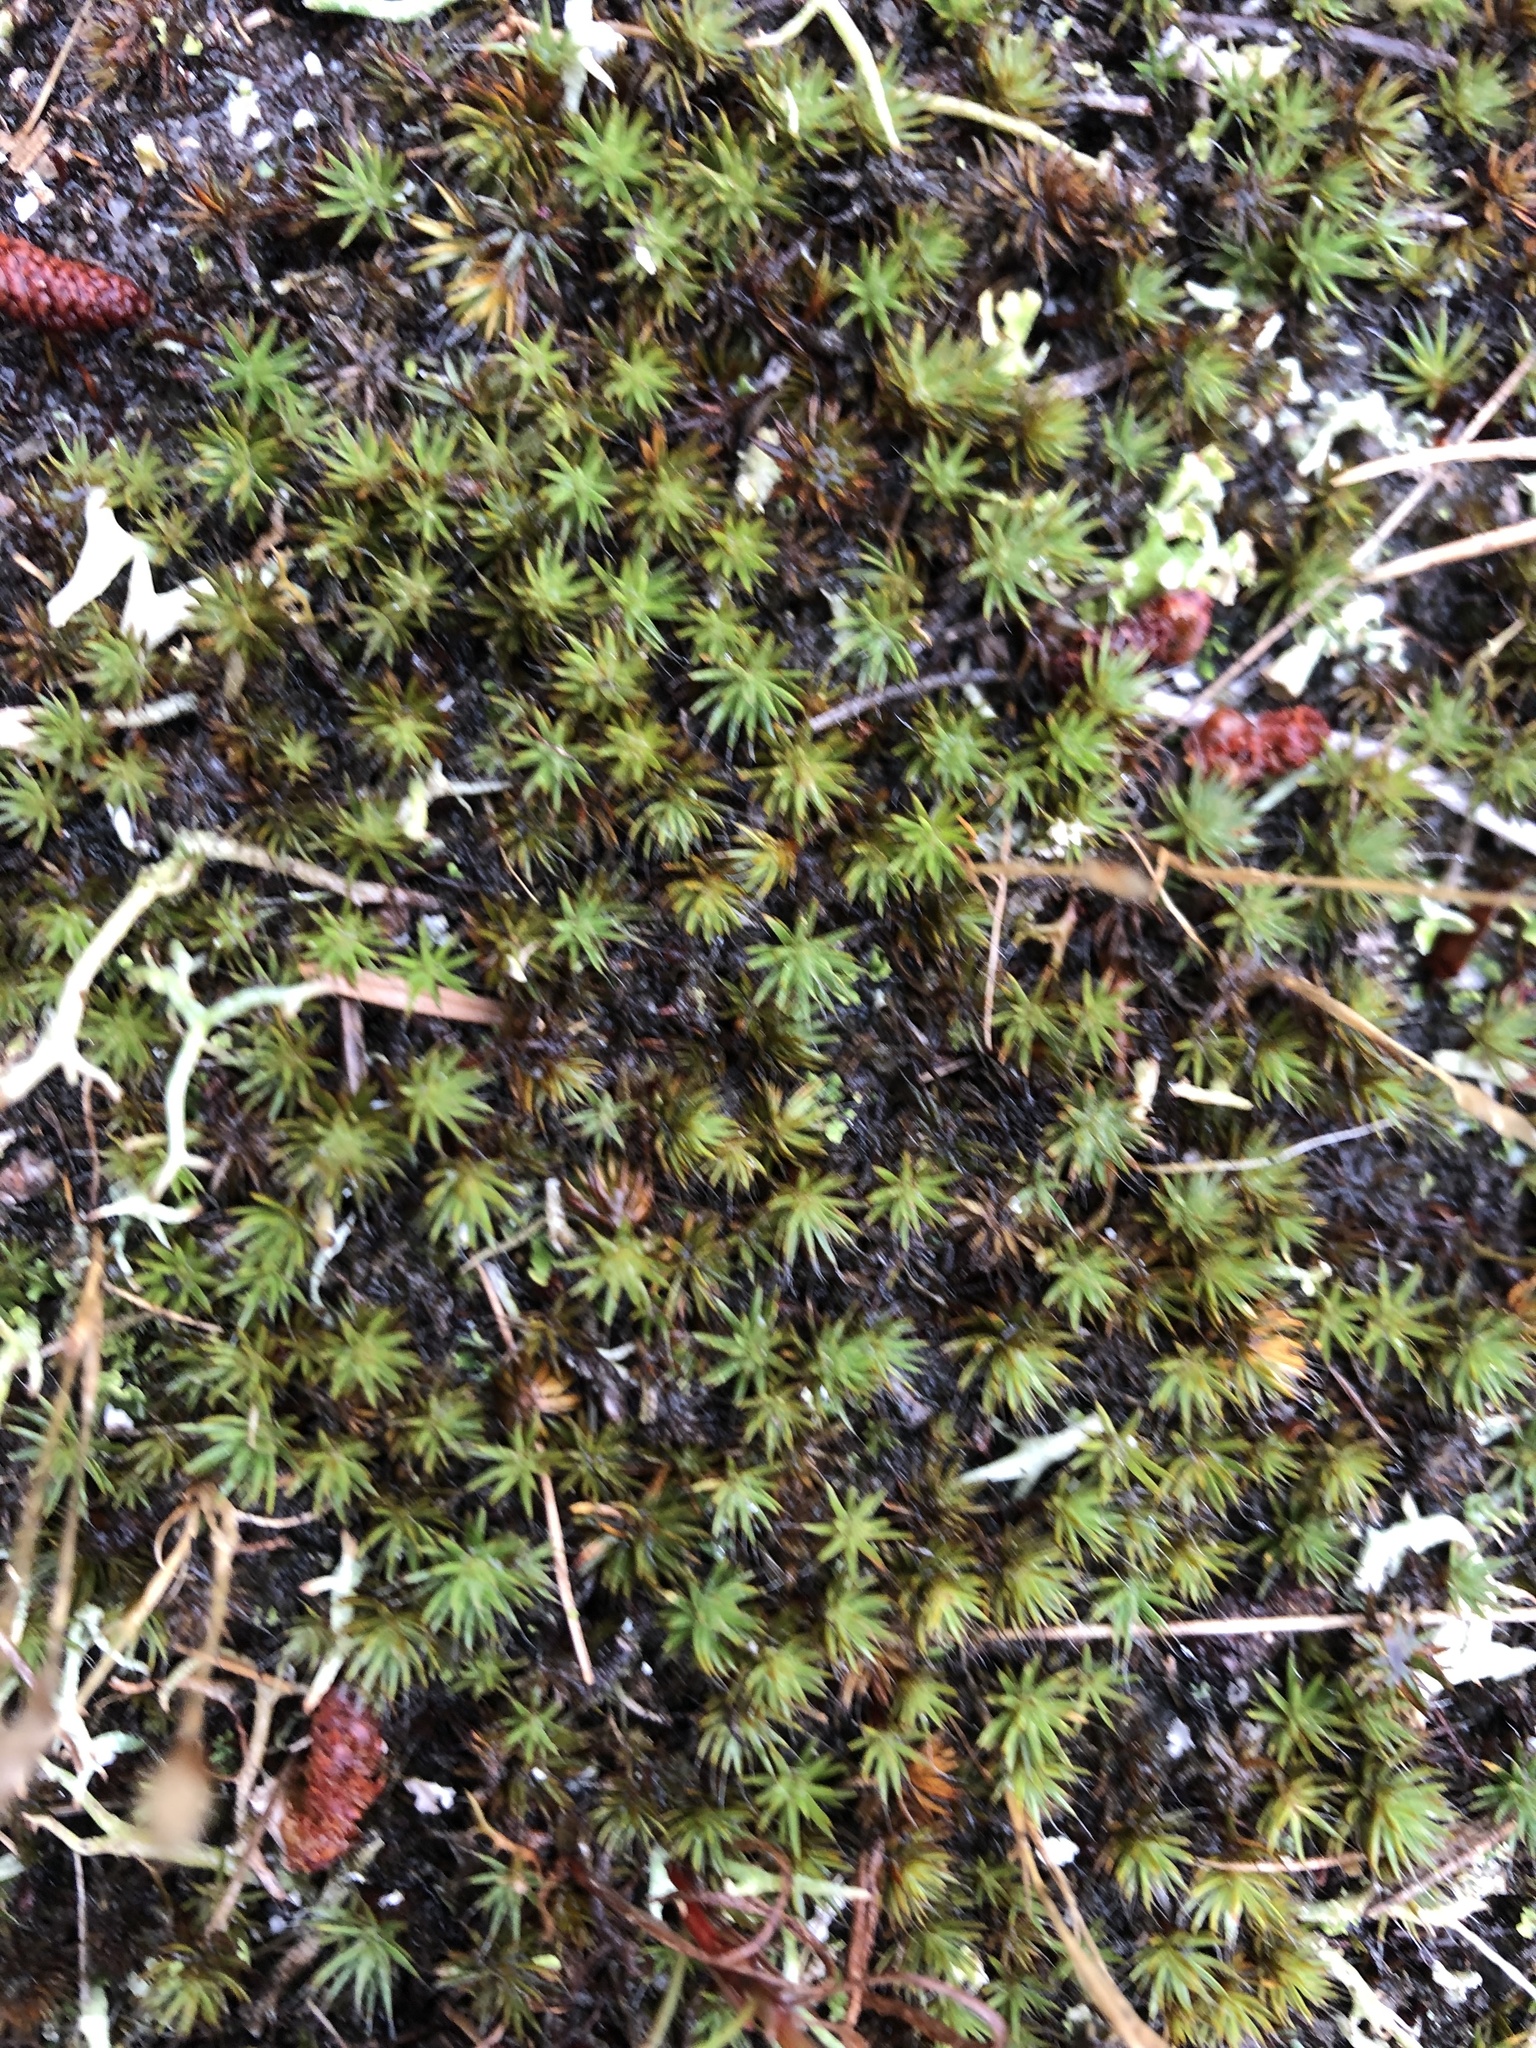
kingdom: Plantae
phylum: Bryophyta
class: Polytrichopsida
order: Polytrichales
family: Polytrichaceae
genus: Polytrichum
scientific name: Polytrichum piliferum
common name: Bristly haircap
